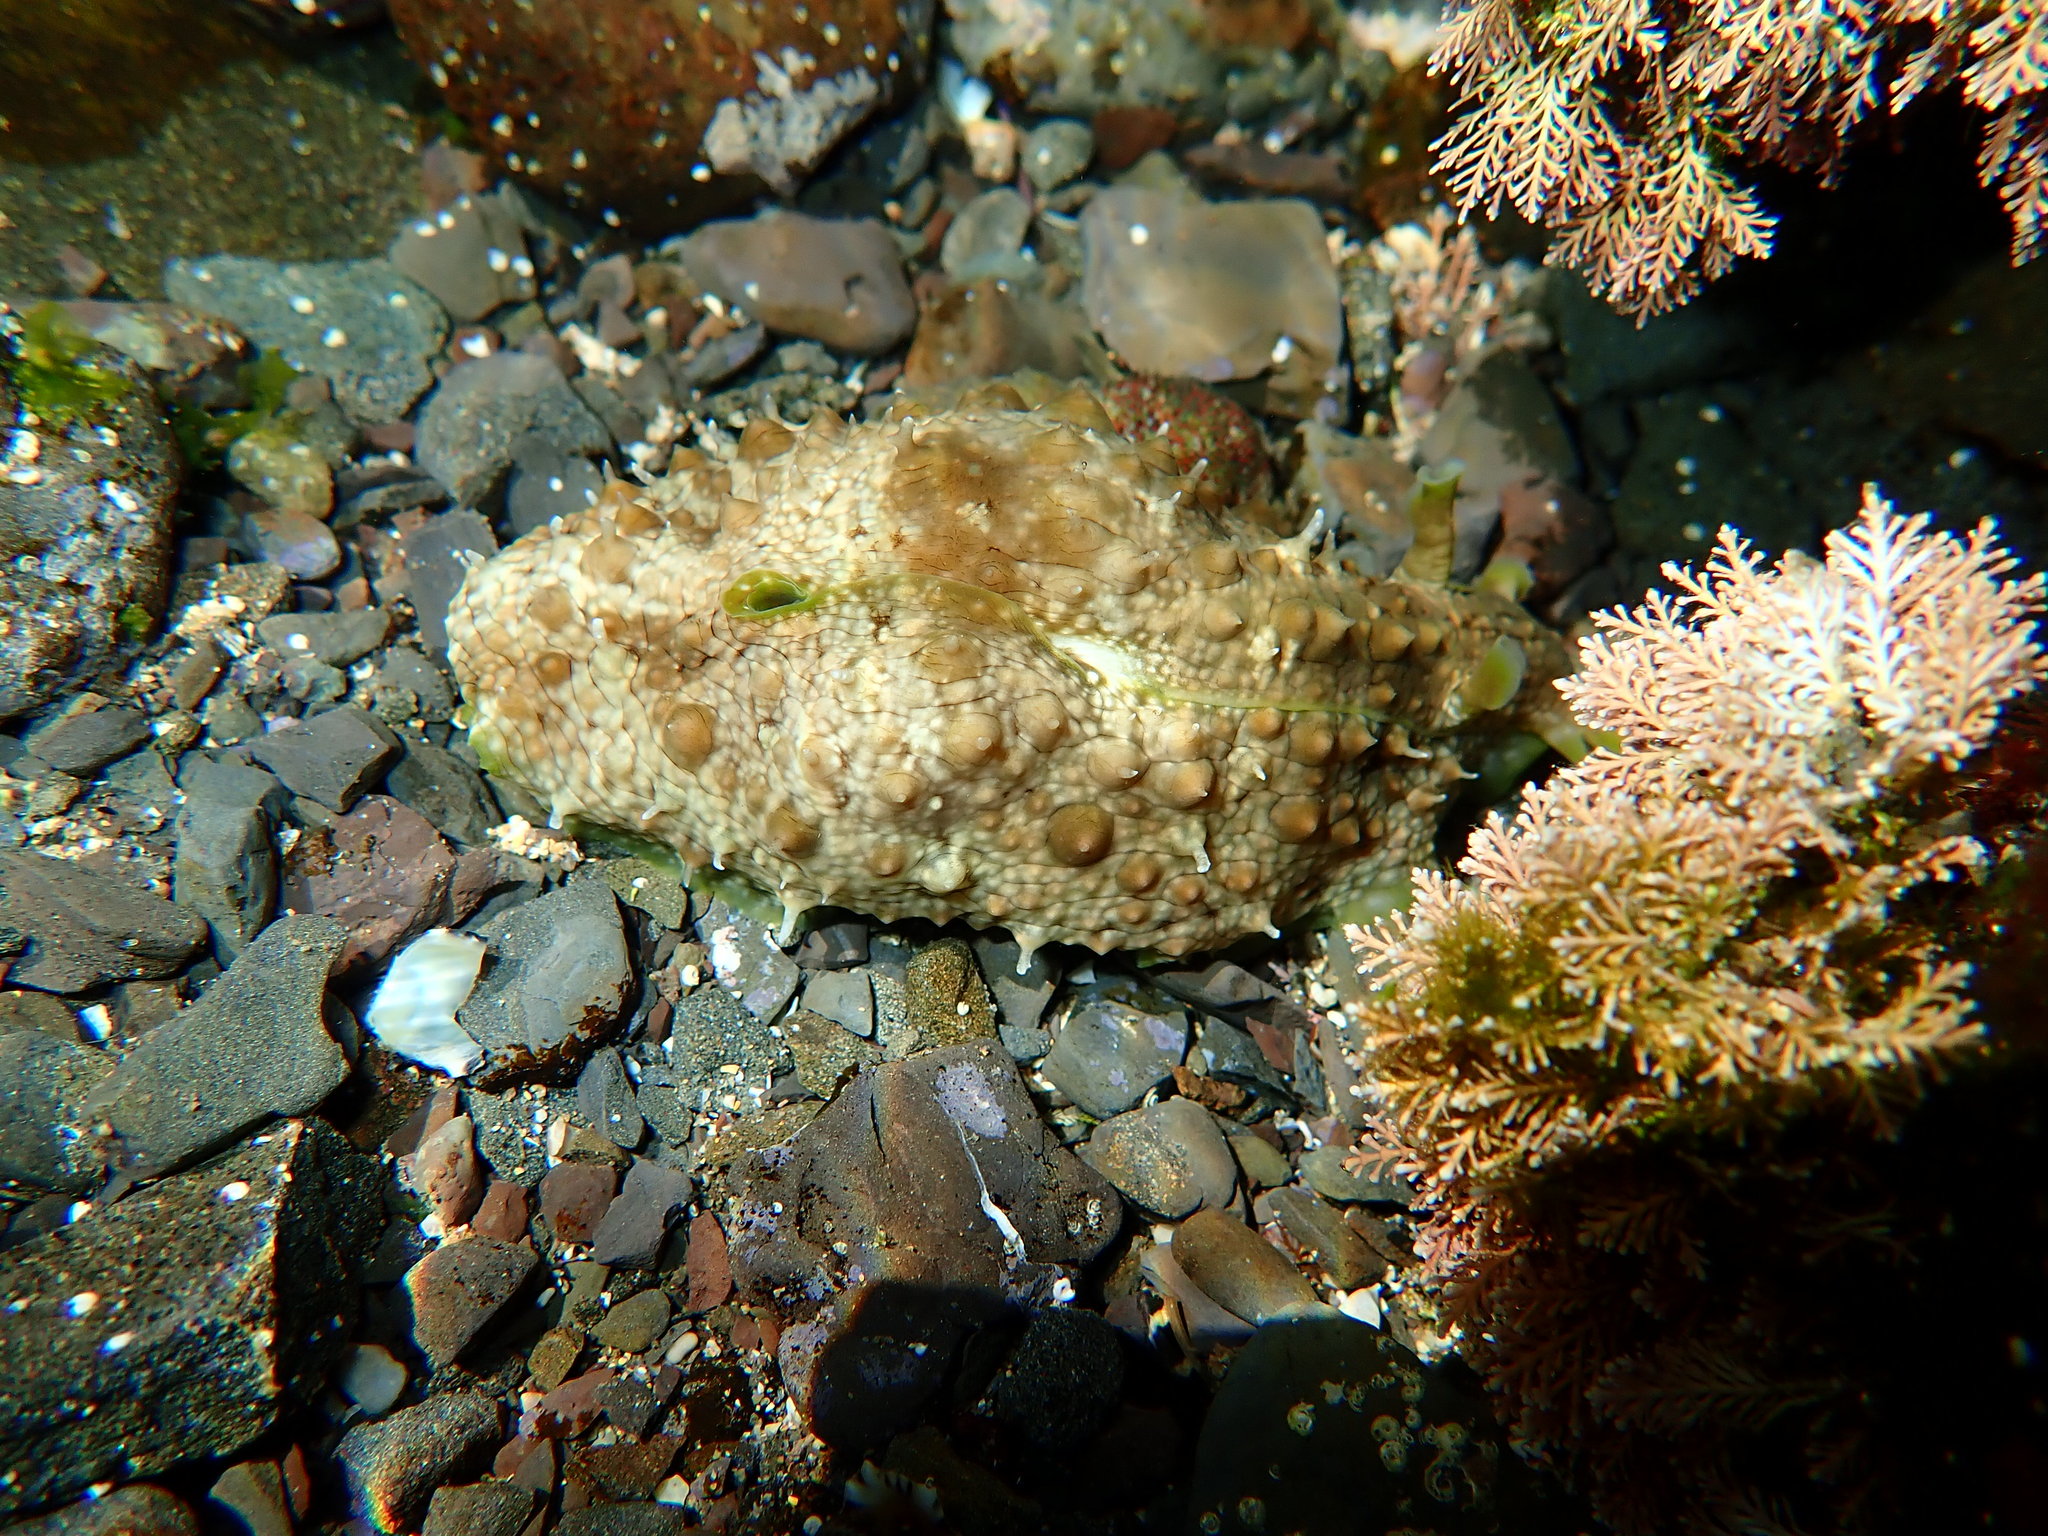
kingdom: Animalia
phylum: Mollusca
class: Gastropoda
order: Aplysiida
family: Aplysiidae
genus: Dolabrifera
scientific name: Dolabrifera brazieri
